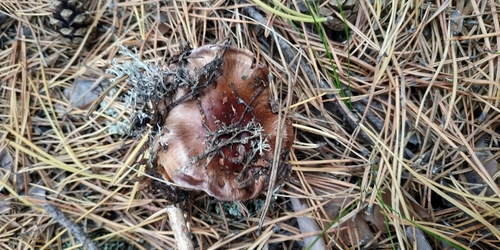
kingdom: Fungi
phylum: Basidiomycota
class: Agaricomycetes
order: Agaricales
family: Cortinariaceae
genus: Cortinarius
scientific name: Cortinarius
